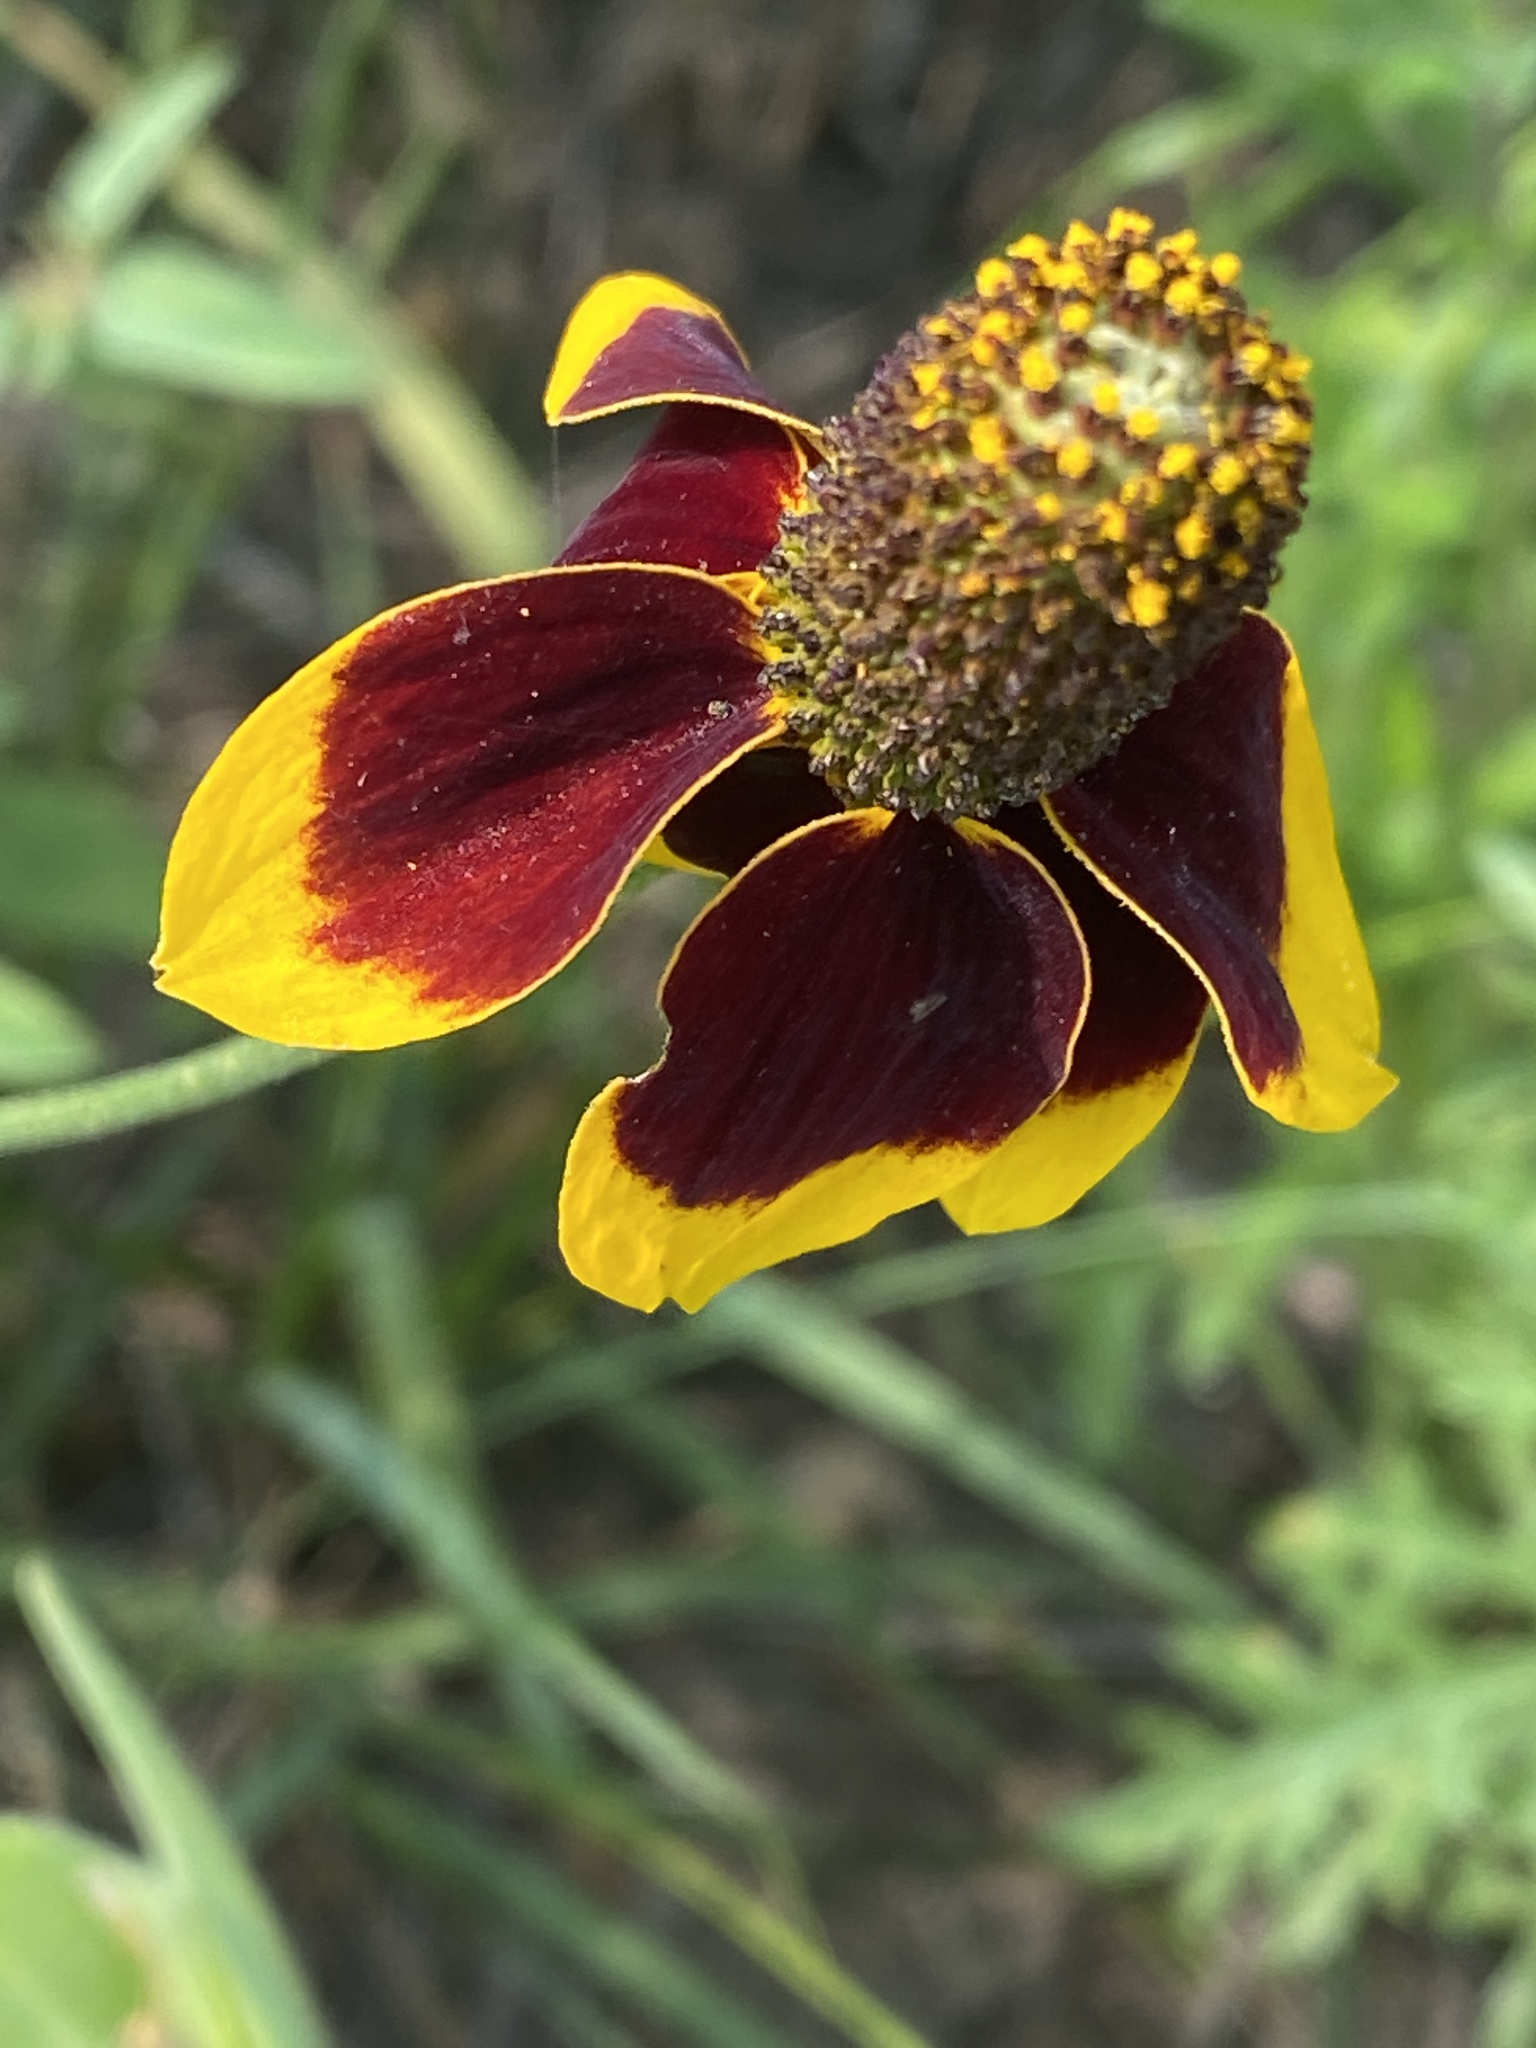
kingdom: Plantae
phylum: Tracheophyta
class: Magnoliopsida
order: Asterales
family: Asteraceae
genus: Ratibida
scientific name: Ratibida columnifera
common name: Prairie coneflower
